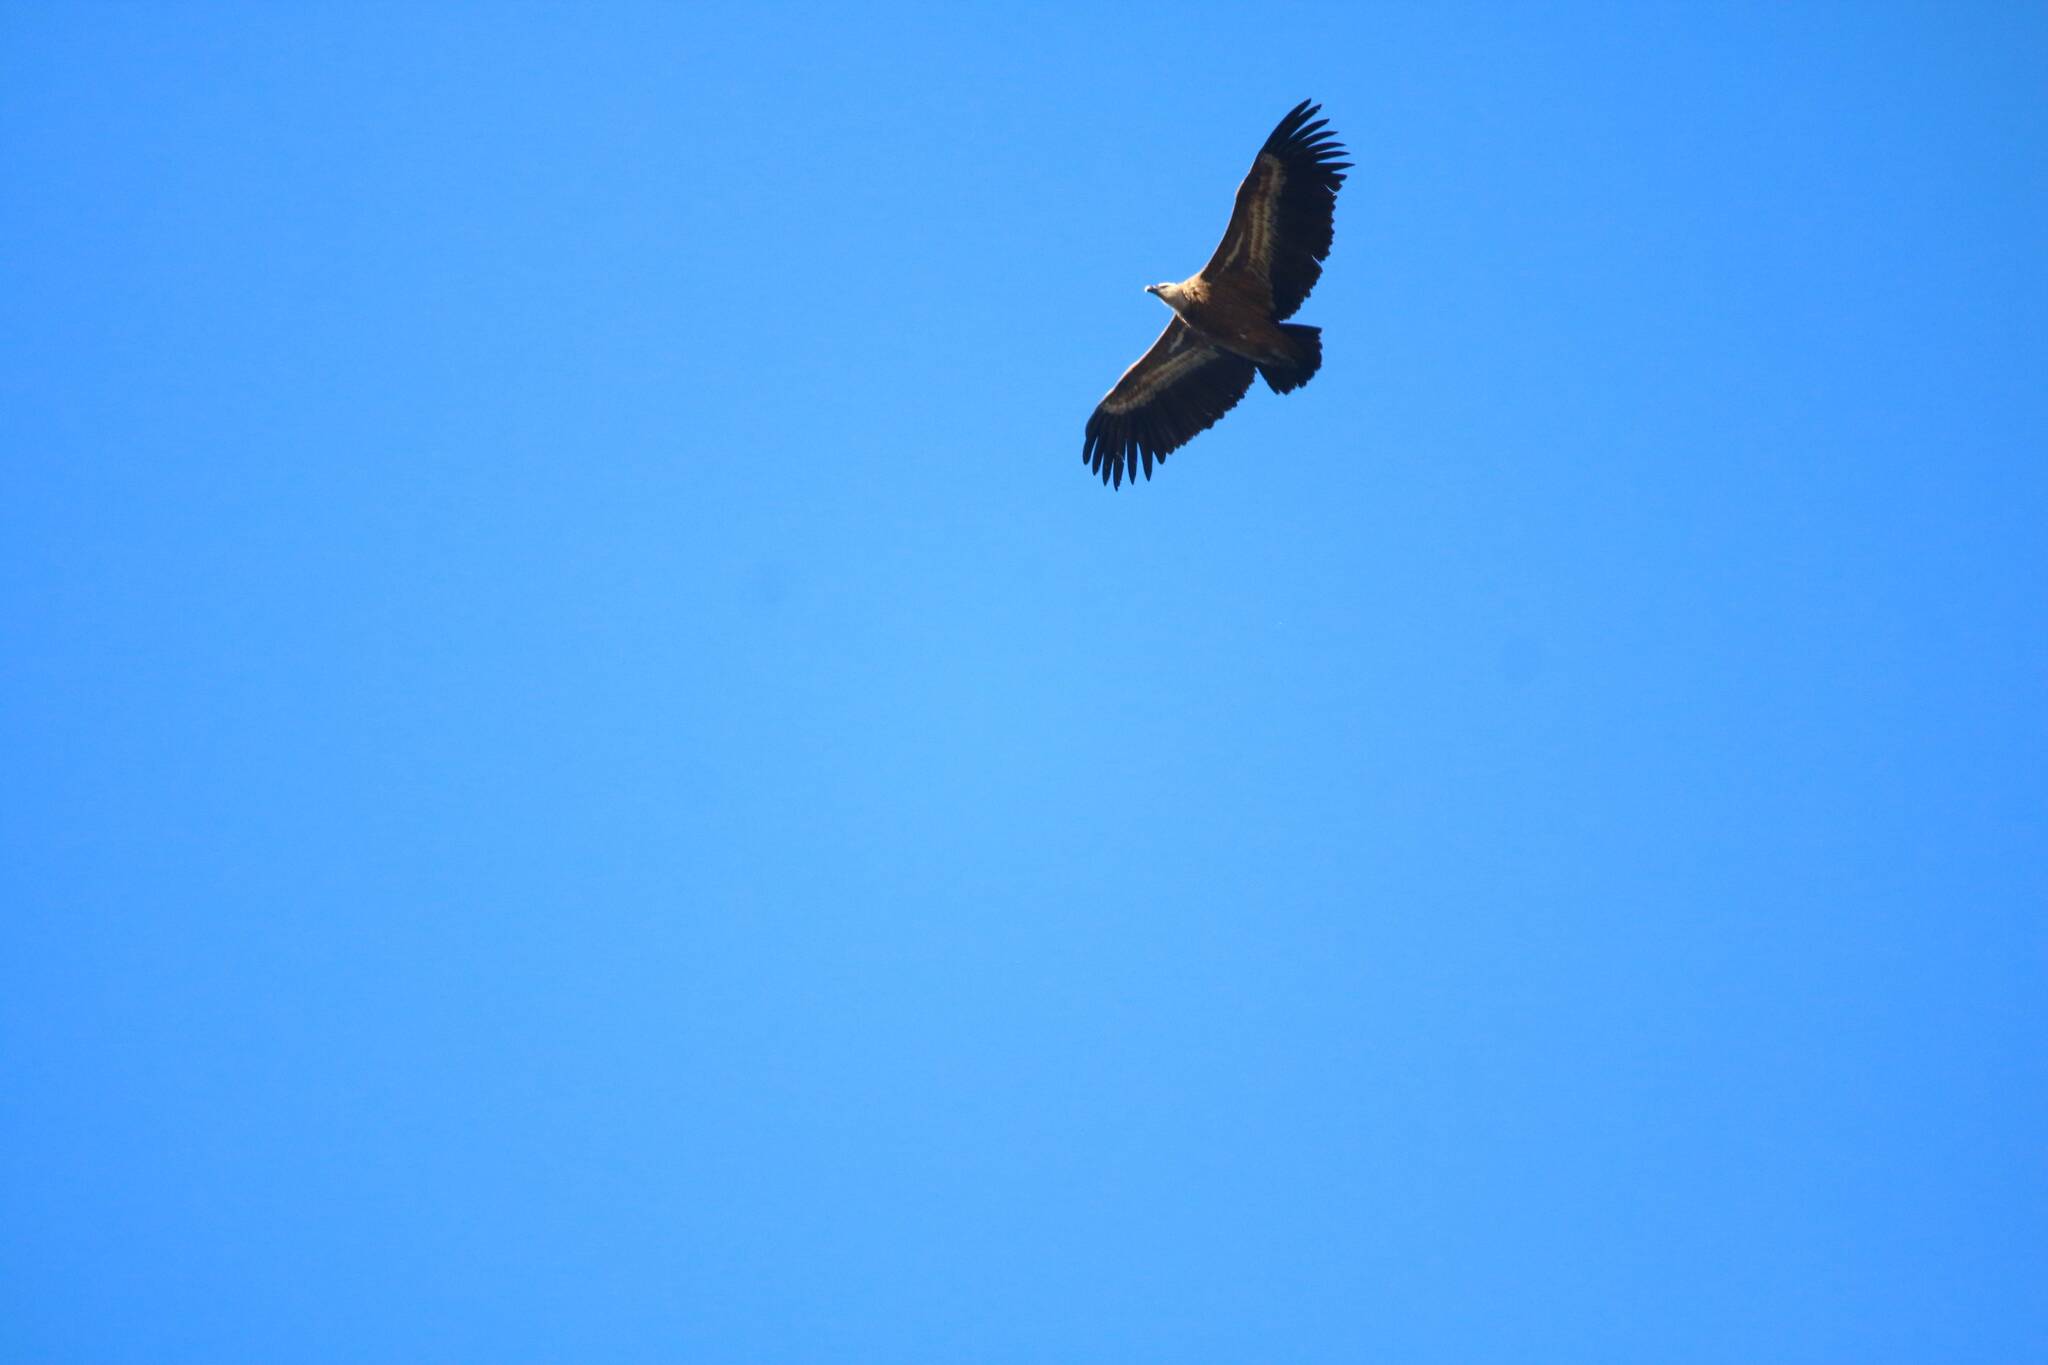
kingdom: Animalia
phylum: Chordata
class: Aves
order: Accipitriformes
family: Accipitridae
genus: Gyps
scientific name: Gyps fulvus
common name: Griffon vulture
